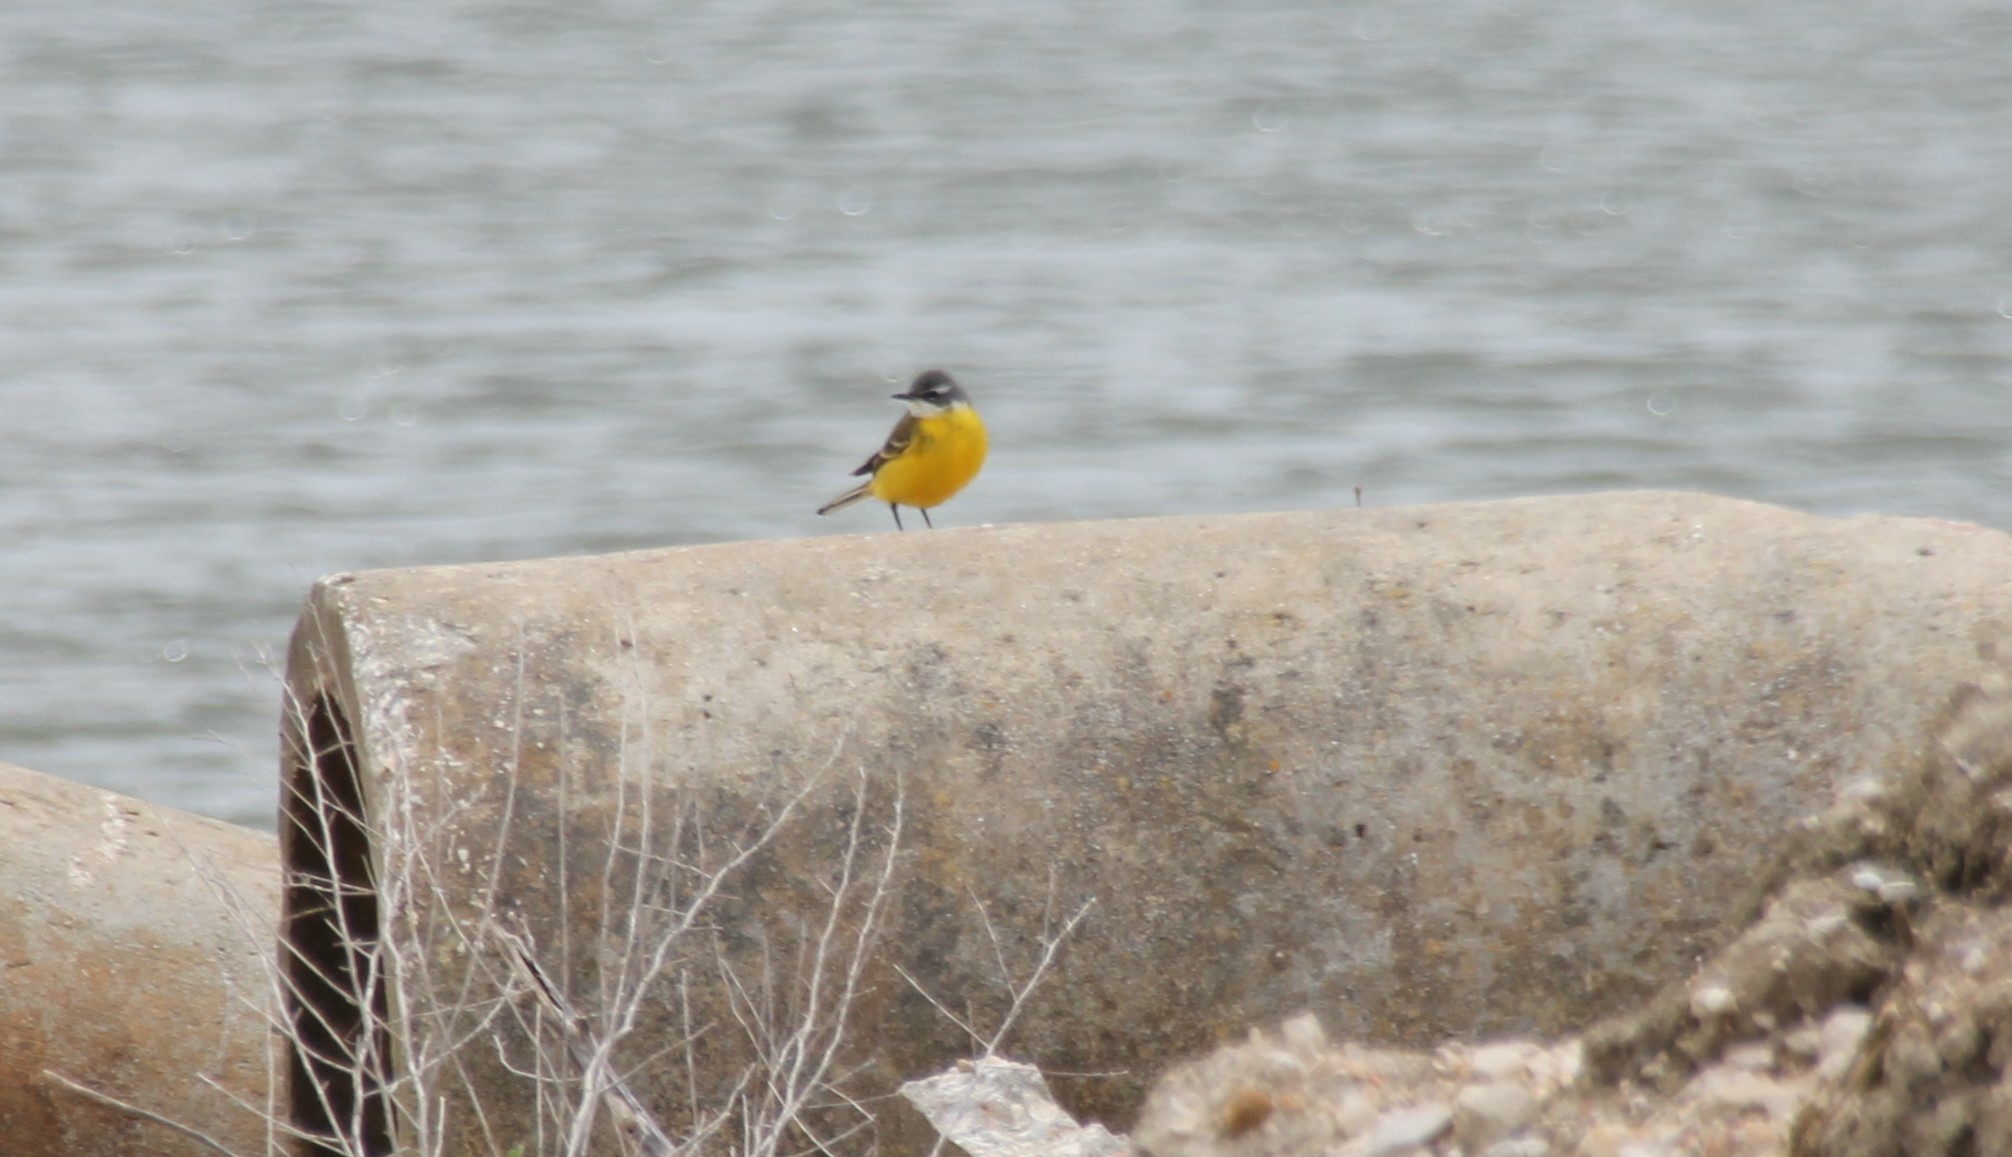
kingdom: Animalia
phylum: Chordata
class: Aves
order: Passeriformes
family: Motacillidae
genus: Motacilla
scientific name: Motacilla flava
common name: Western yellow wagtail
